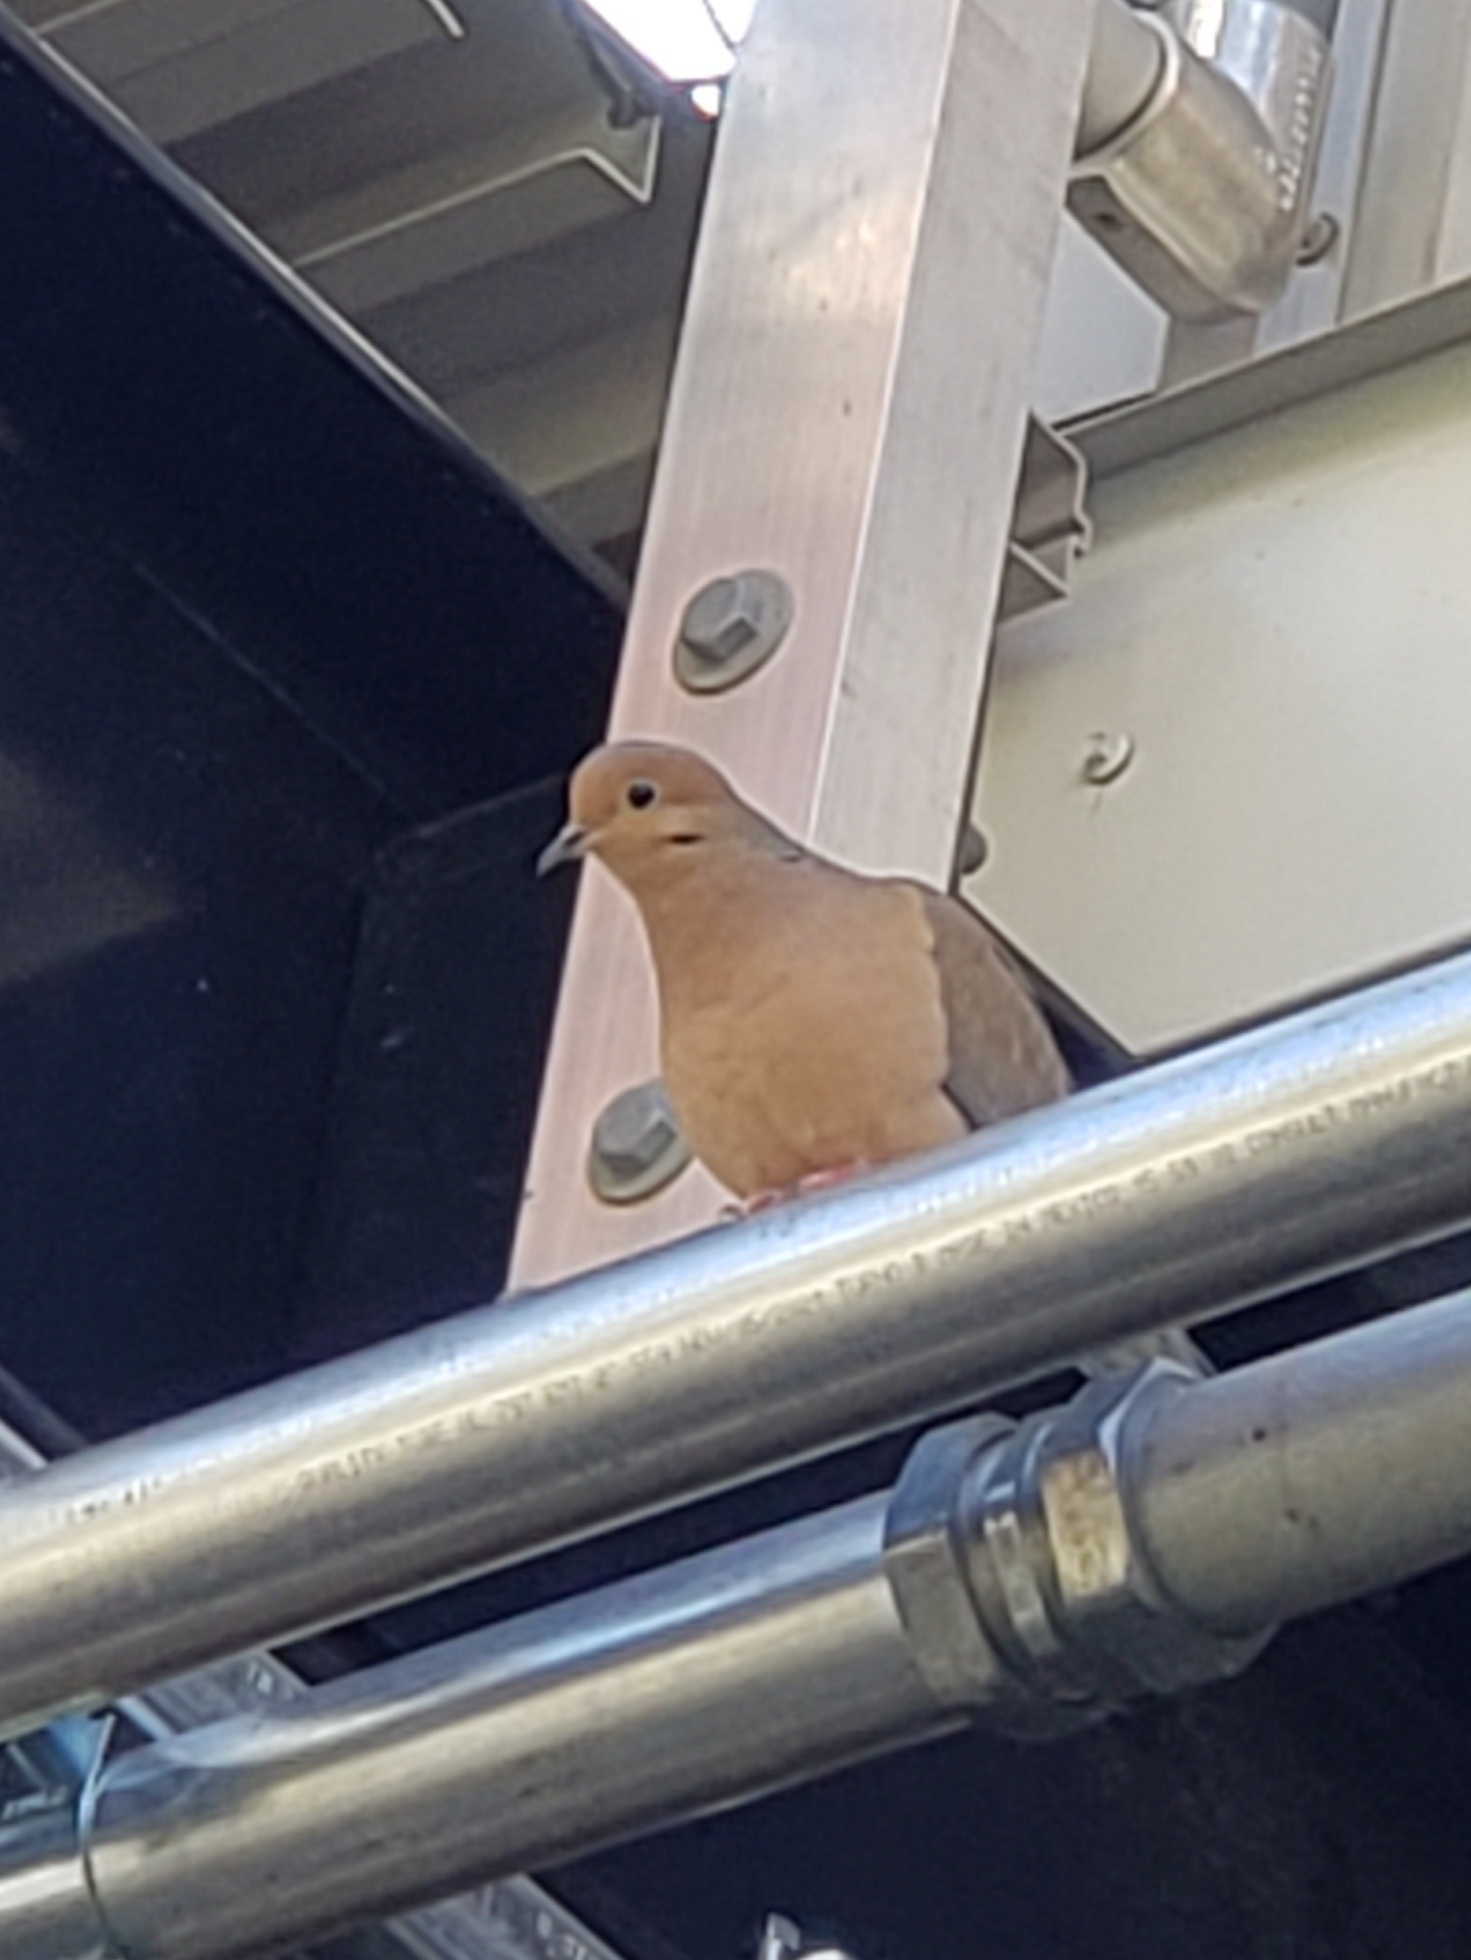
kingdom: Animalia
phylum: Chordata
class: Aves
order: Columbiformes
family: Columbidae
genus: Zenaida
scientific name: Zenaida macroura
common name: Mourning dove
